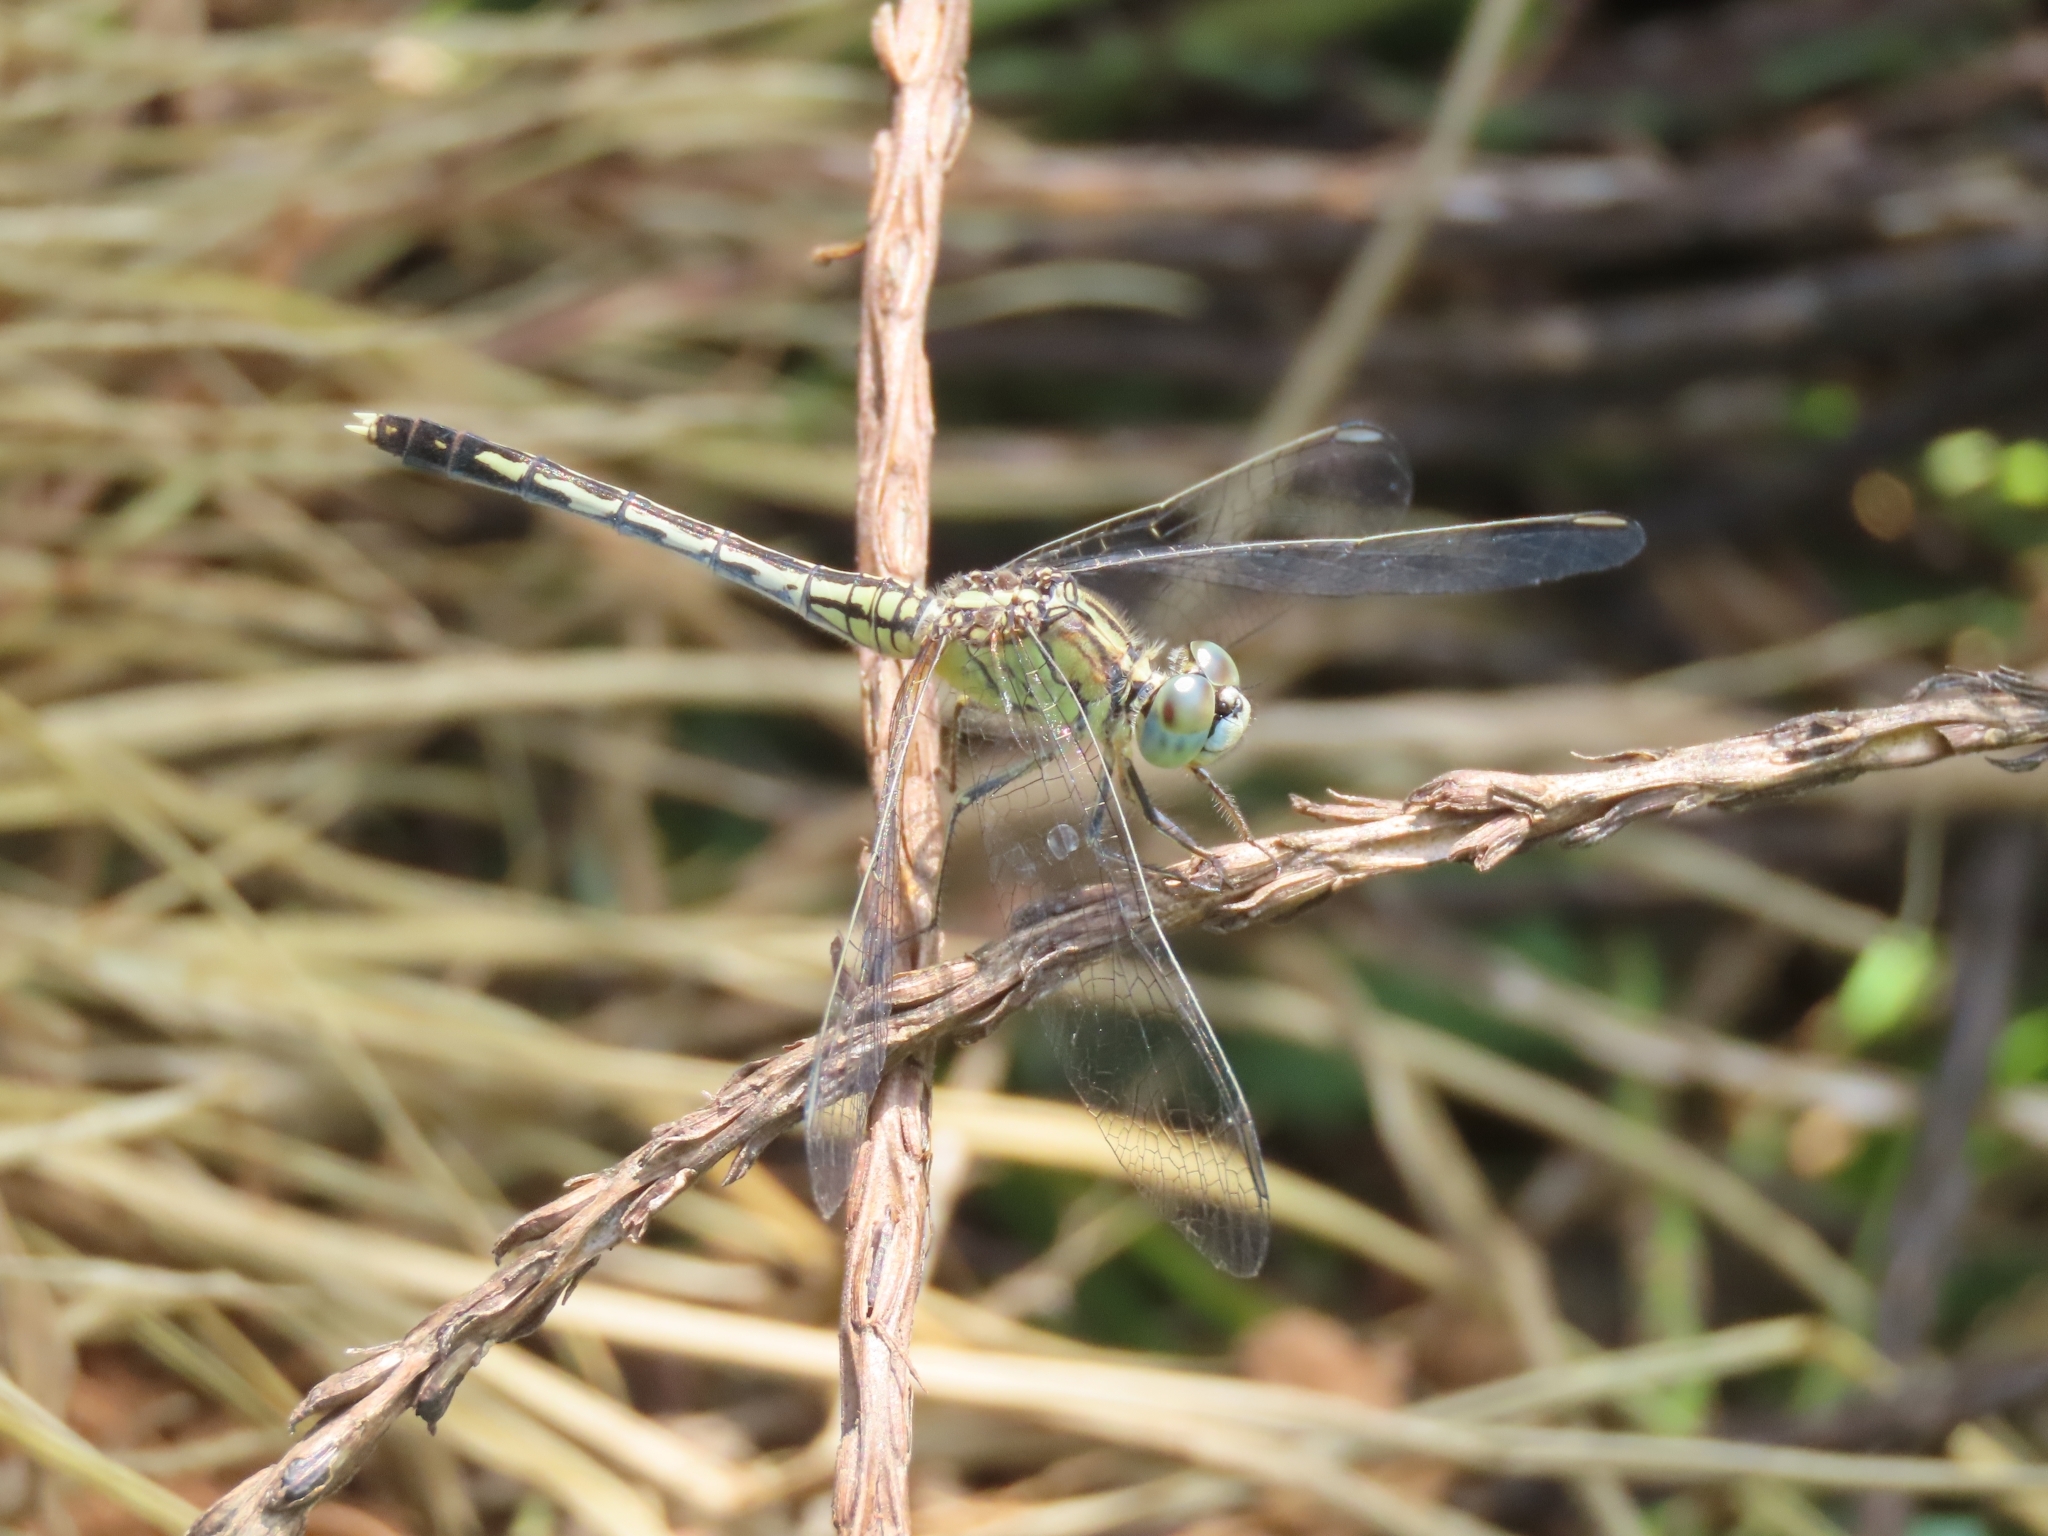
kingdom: Animalia
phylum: Arthropoda
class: Insecta
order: Odonata
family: Libellulidae
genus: Diplacodes
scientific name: Diplacodes trivialis
